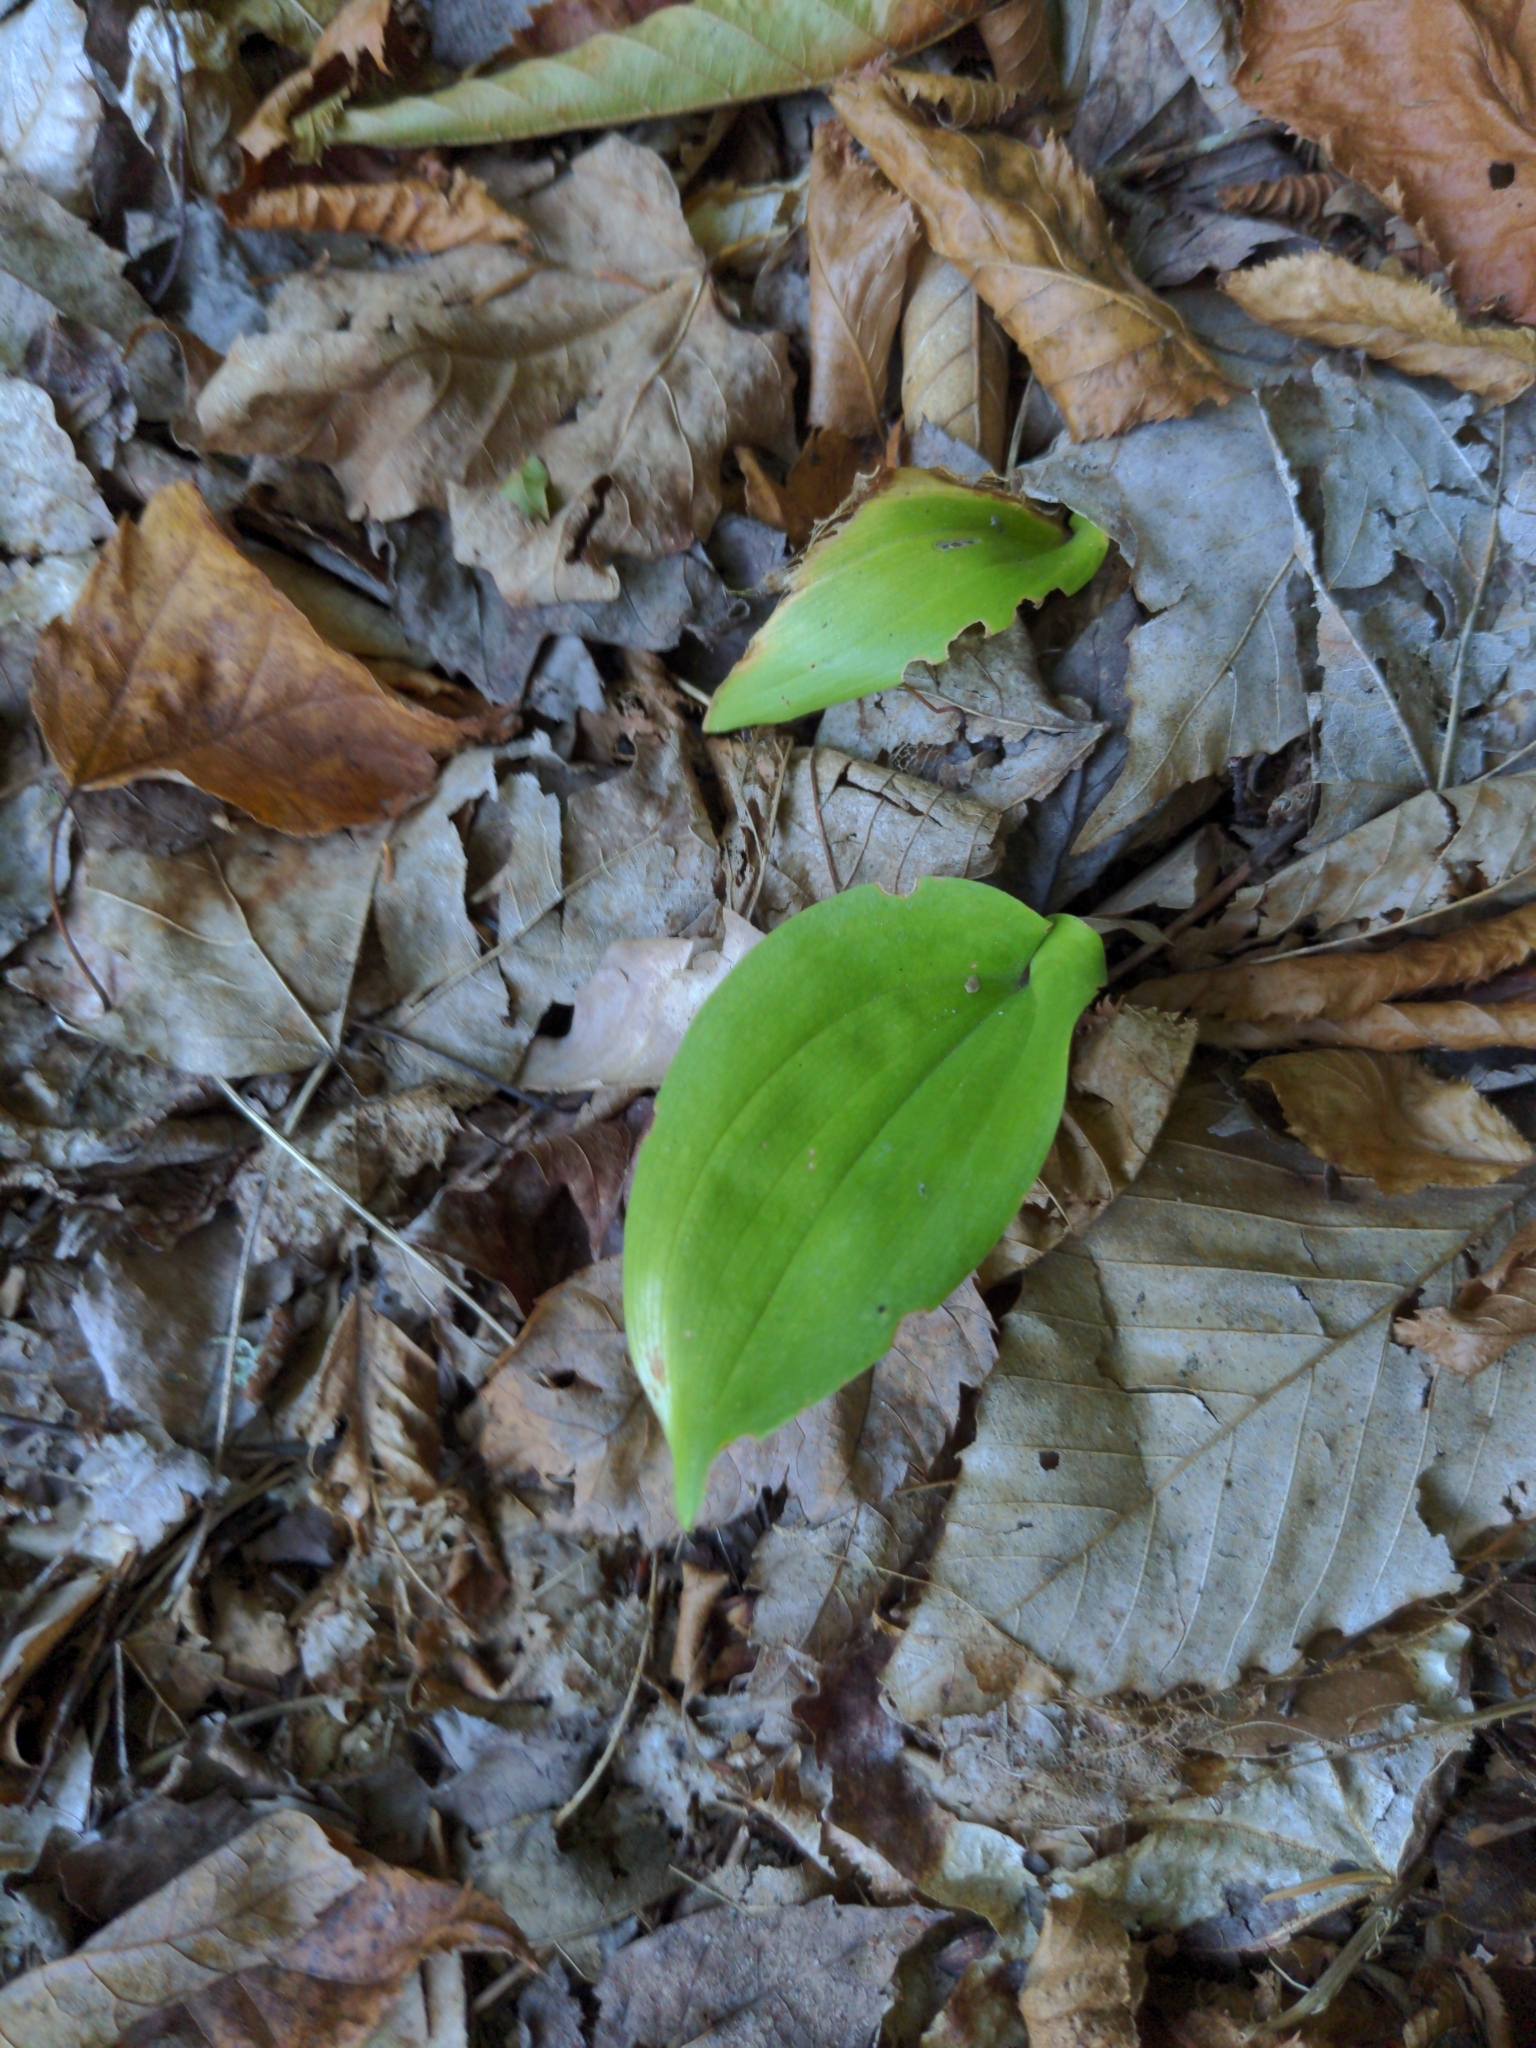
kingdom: Plantae
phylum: Tracheophyta
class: Liliopsida
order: Asparagales
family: Asparagaceae
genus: Maianthemum
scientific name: Maianthemum canadense
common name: False lily-of-the-valley
